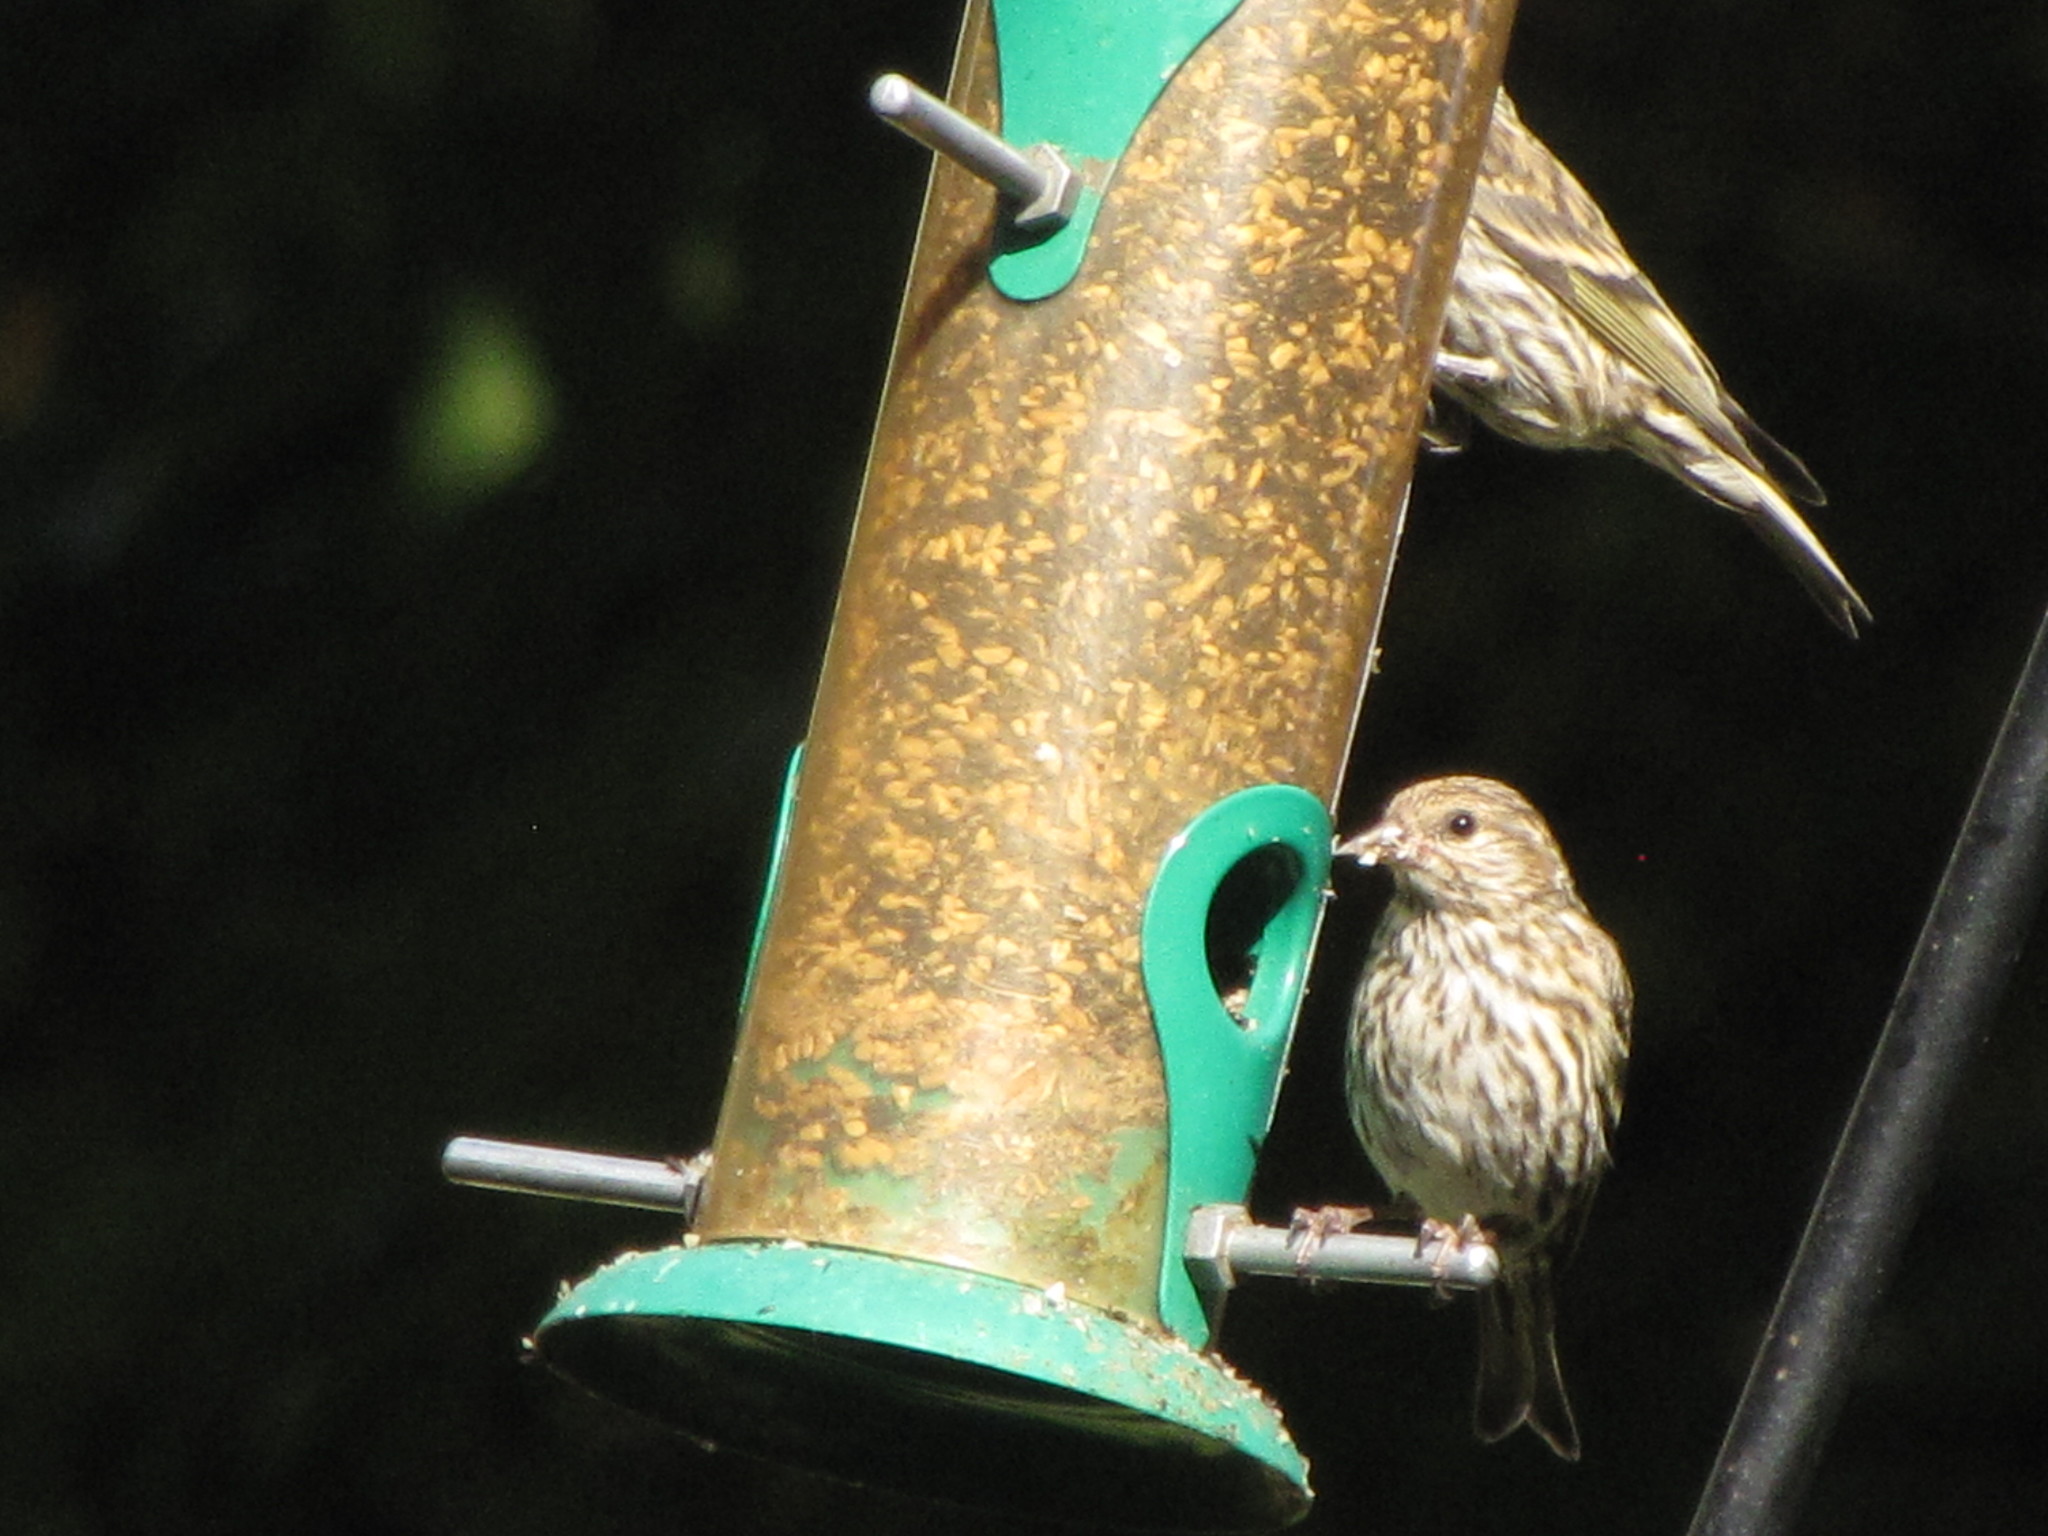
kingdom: Animalia
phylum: Chordata
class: Aves
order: Passeriformes
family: Fringillidae
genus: Spinus
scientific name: Spinus pinus
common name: Pine siskin
